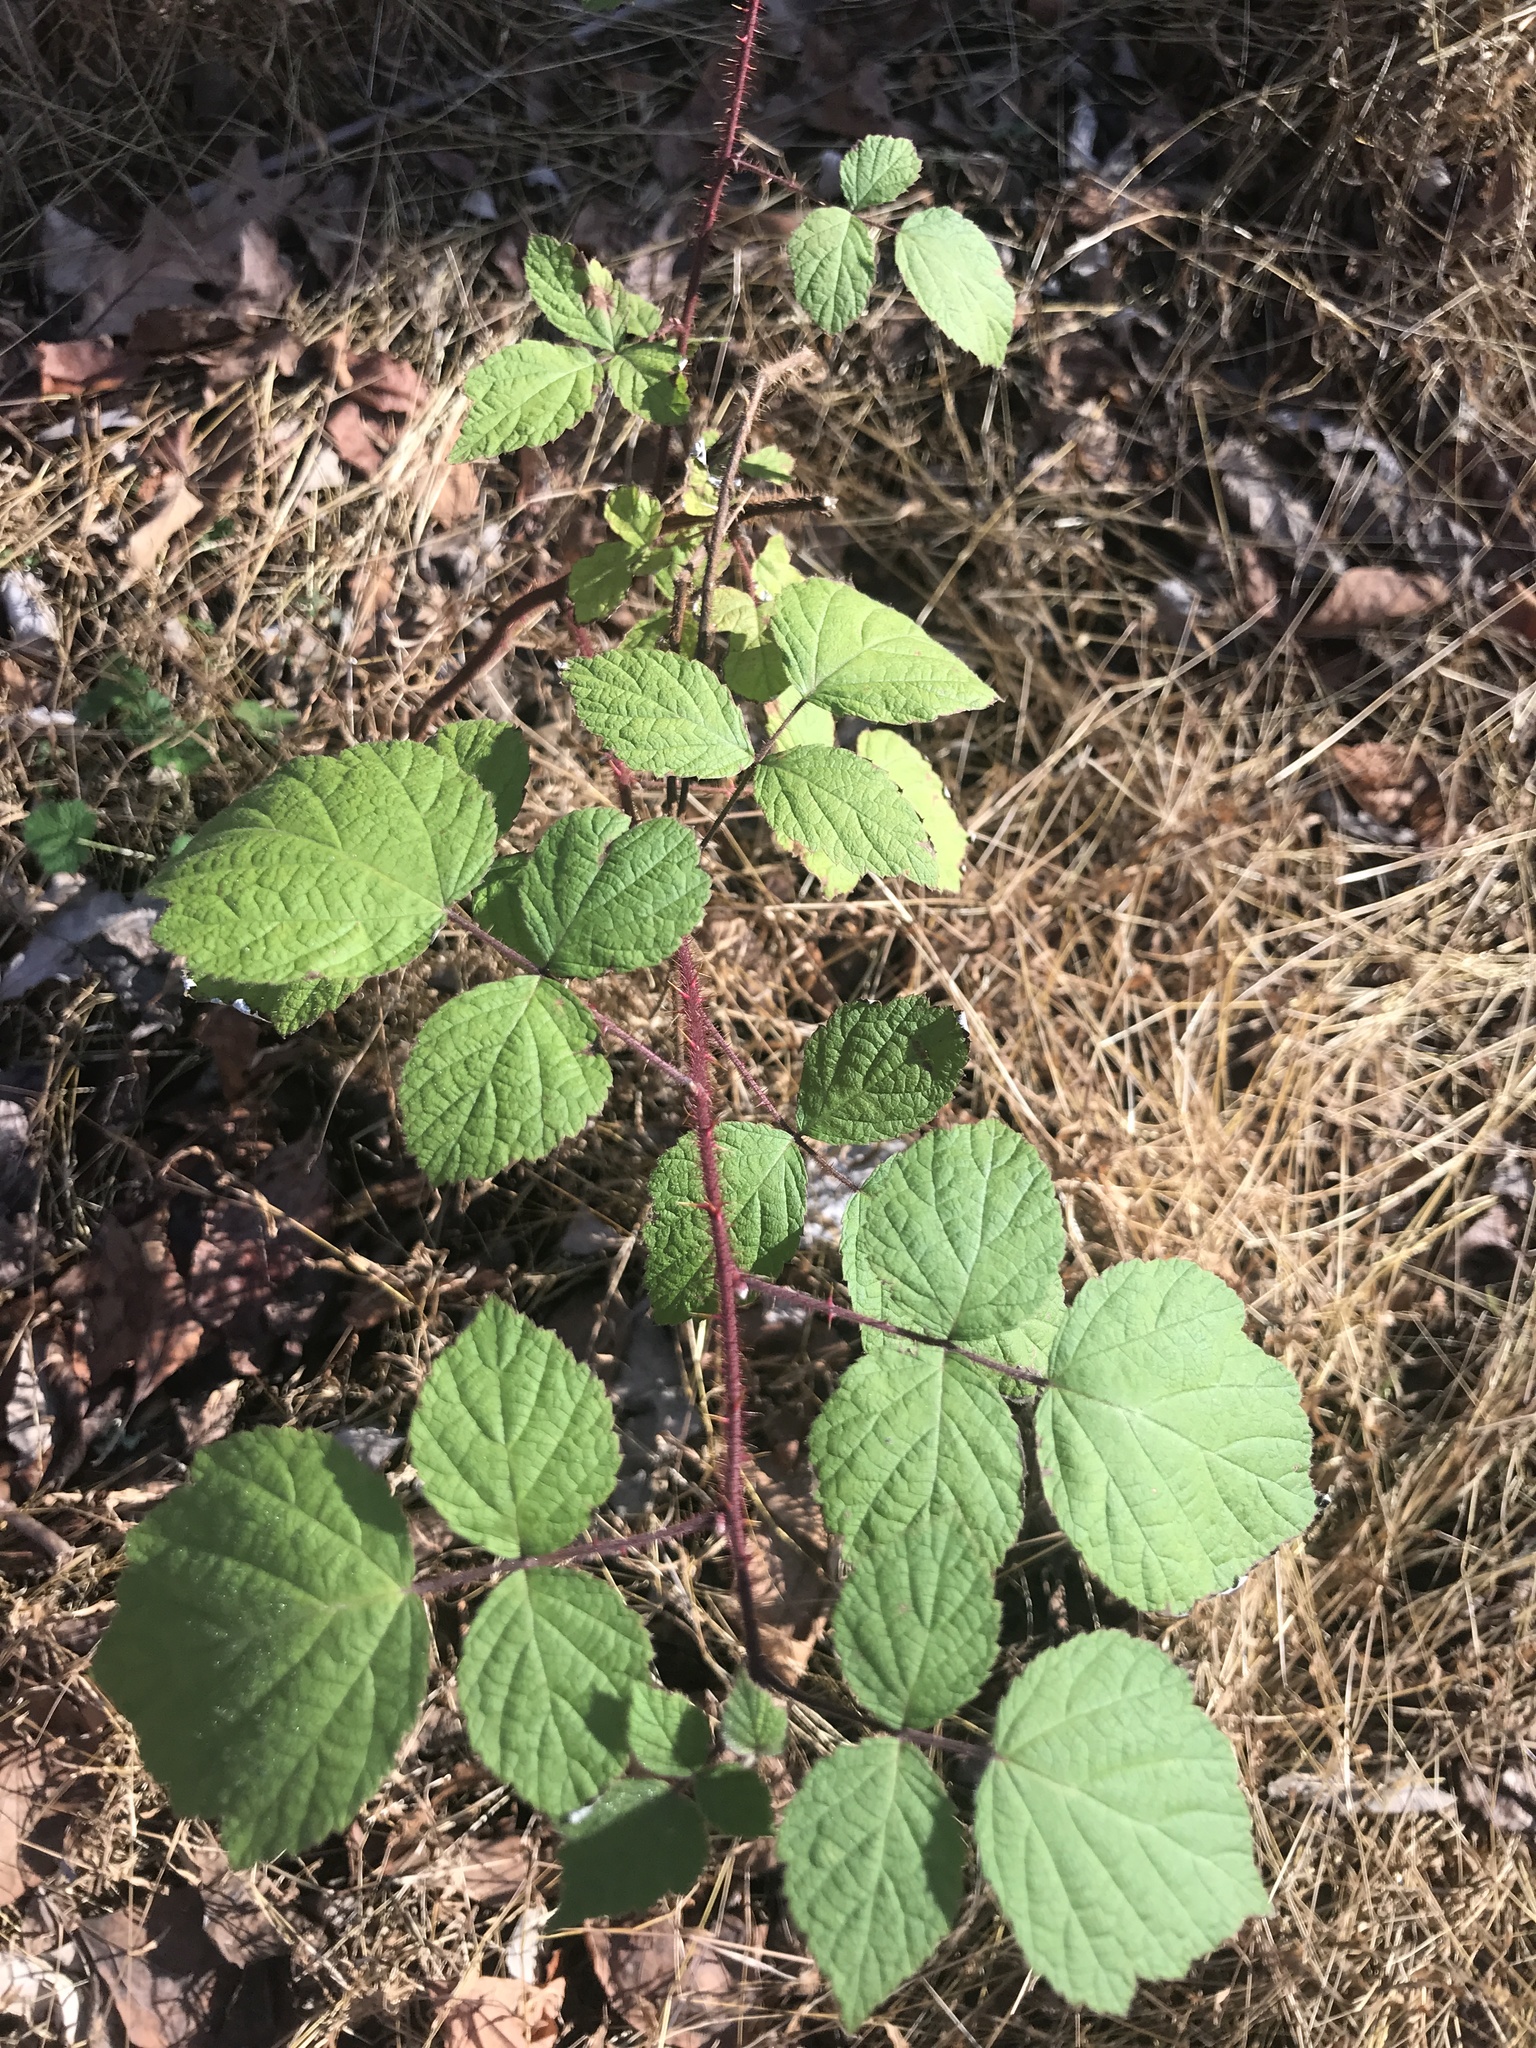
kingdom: Plantae
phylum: Tracheophyta
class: Magnoliopsida
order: Rosales
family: Rosaceae
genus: Rubus
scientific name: Rubus phoenicolasius
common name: Japanese wineberry
